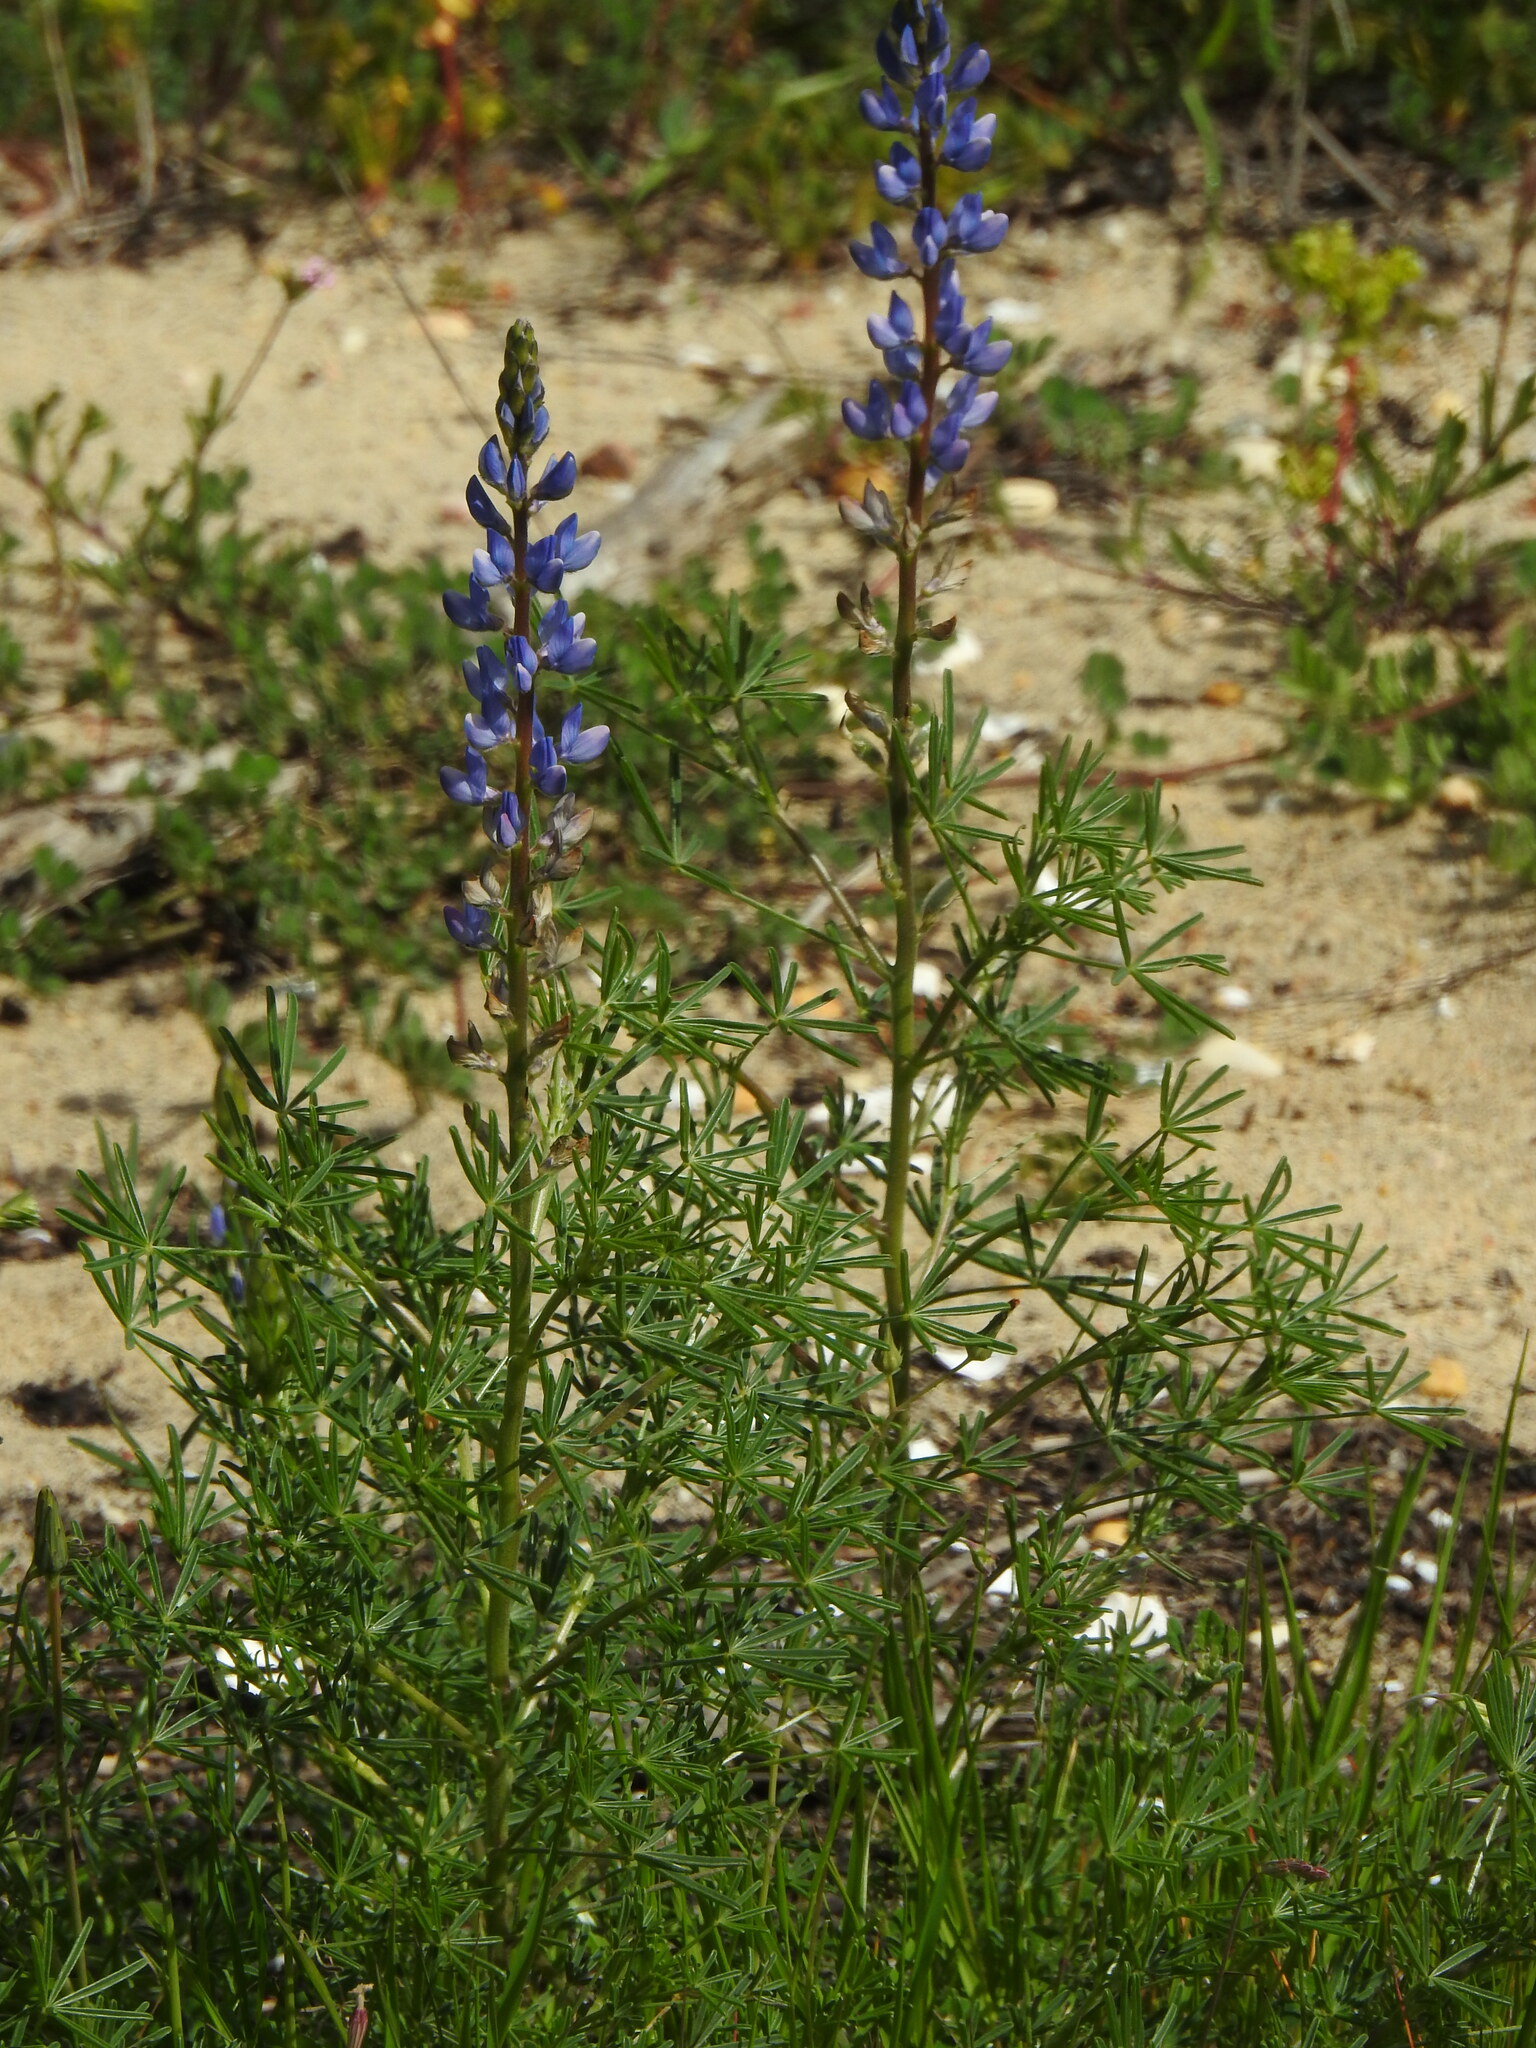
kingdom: Plantae
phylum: Tracheophyta
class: Magnoliopsida
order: Fabales
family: Fabaceae
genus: Lupinus
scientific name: Lupinus angustifolius
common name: Narrow-leaved lupin
